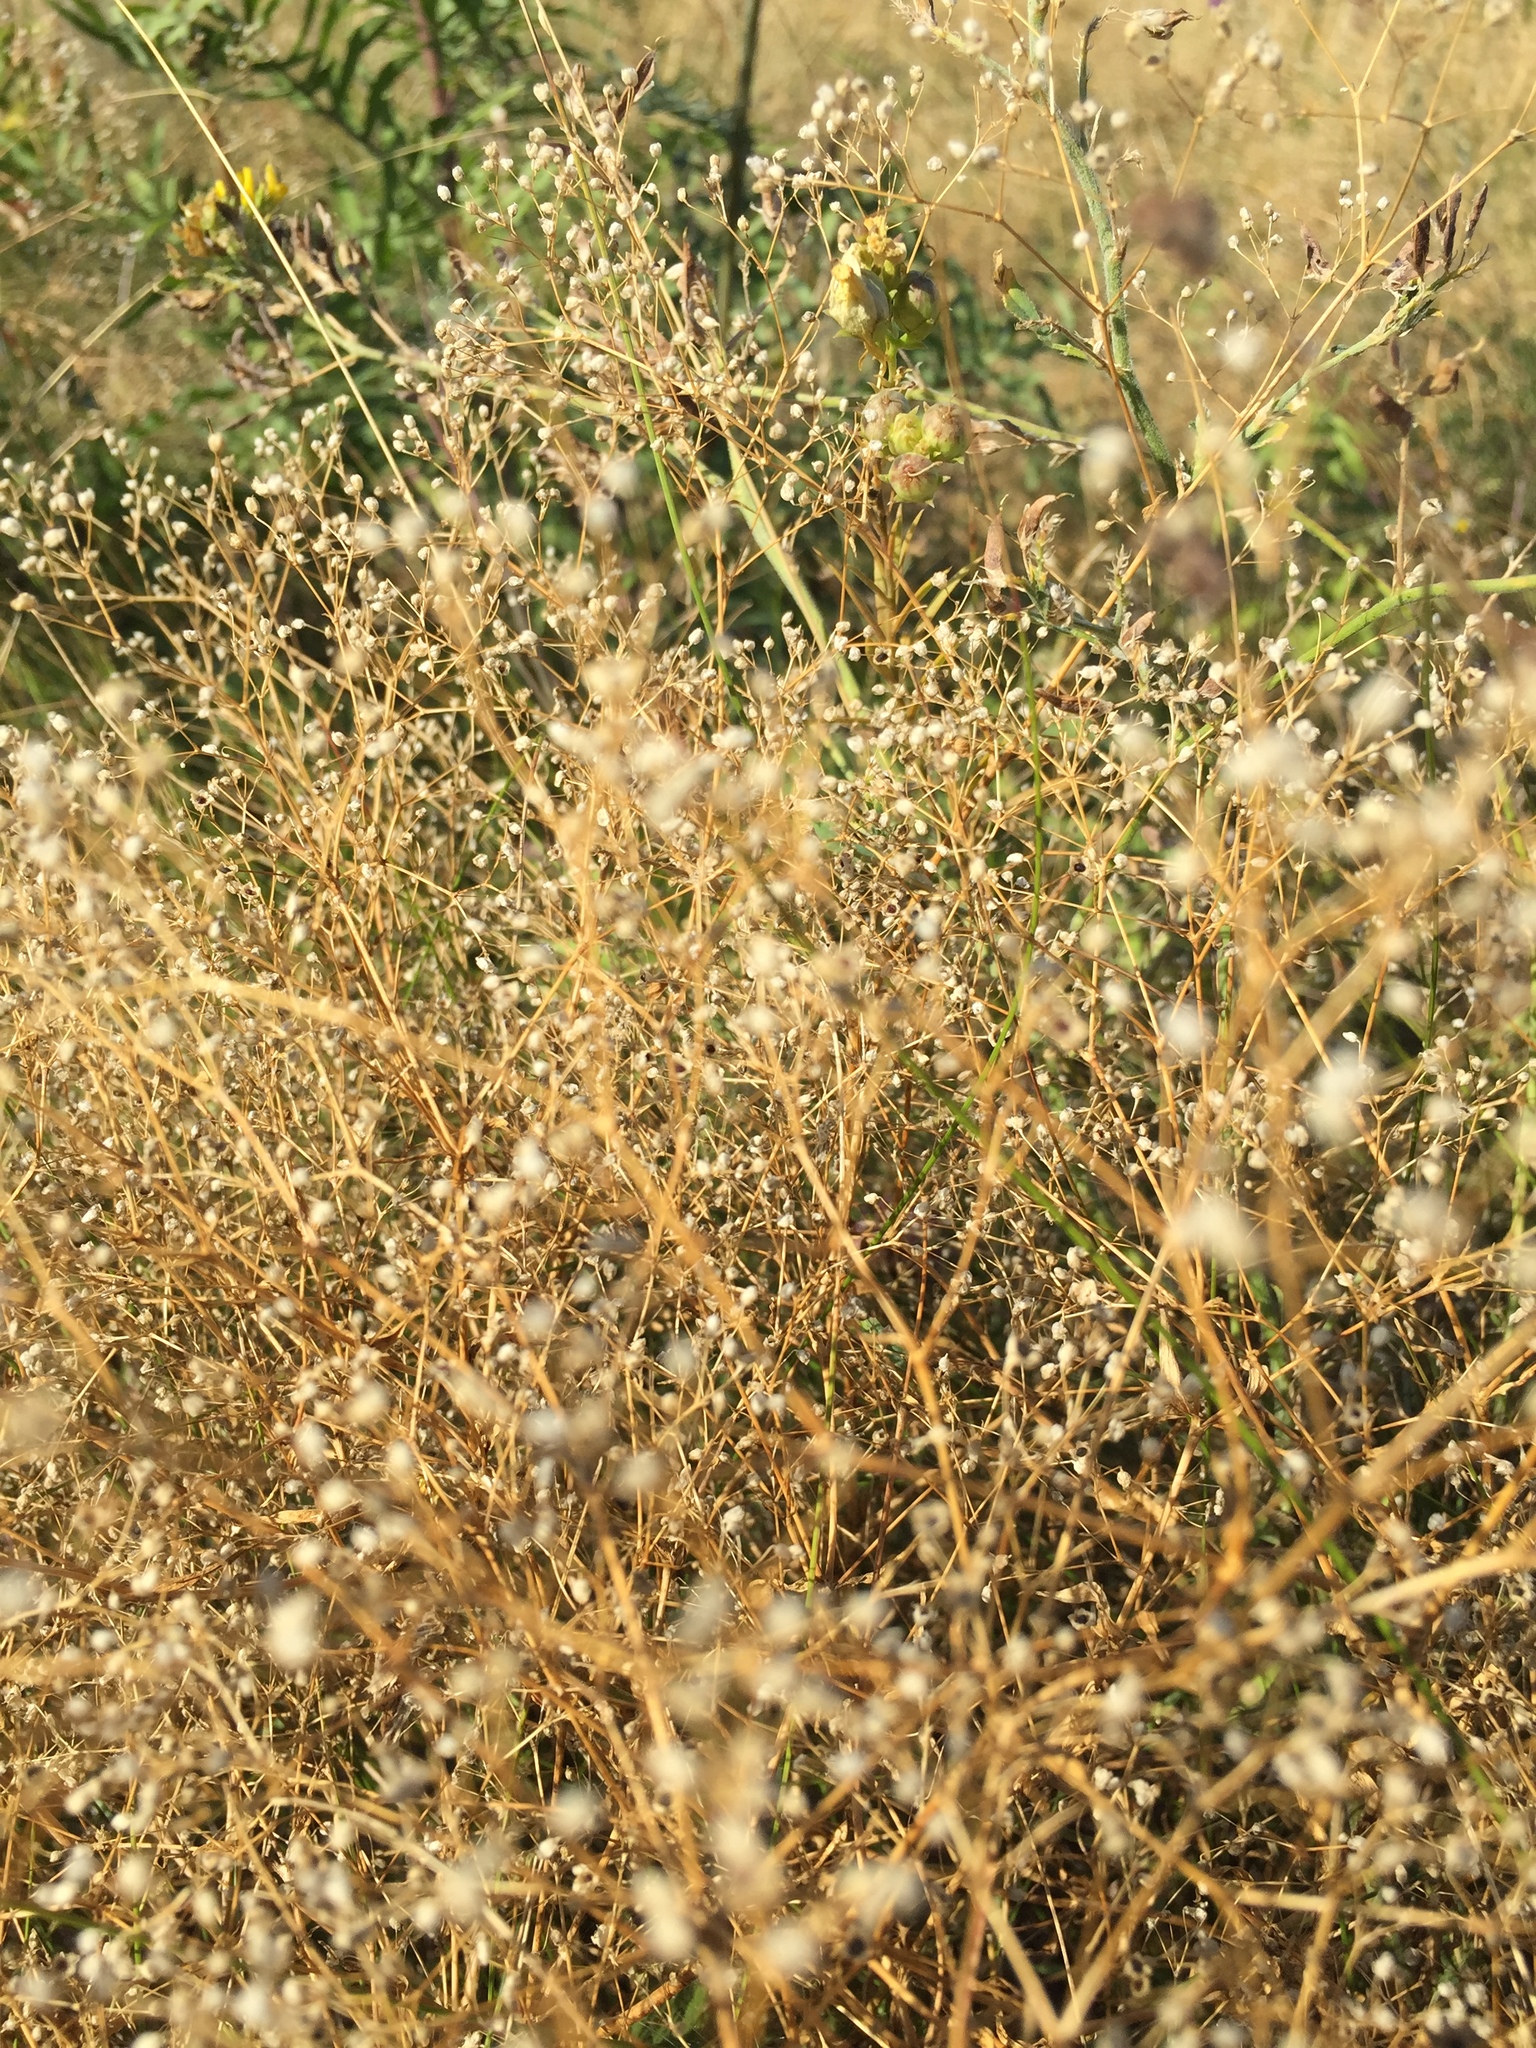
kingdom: Plantae
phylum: Tracheophyta
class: Magnoliopsida
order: Caryophyllales
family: Caryophyllaceae
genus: Gypsophila
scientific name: Gypsophila paniculata
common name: Baby's-breath
